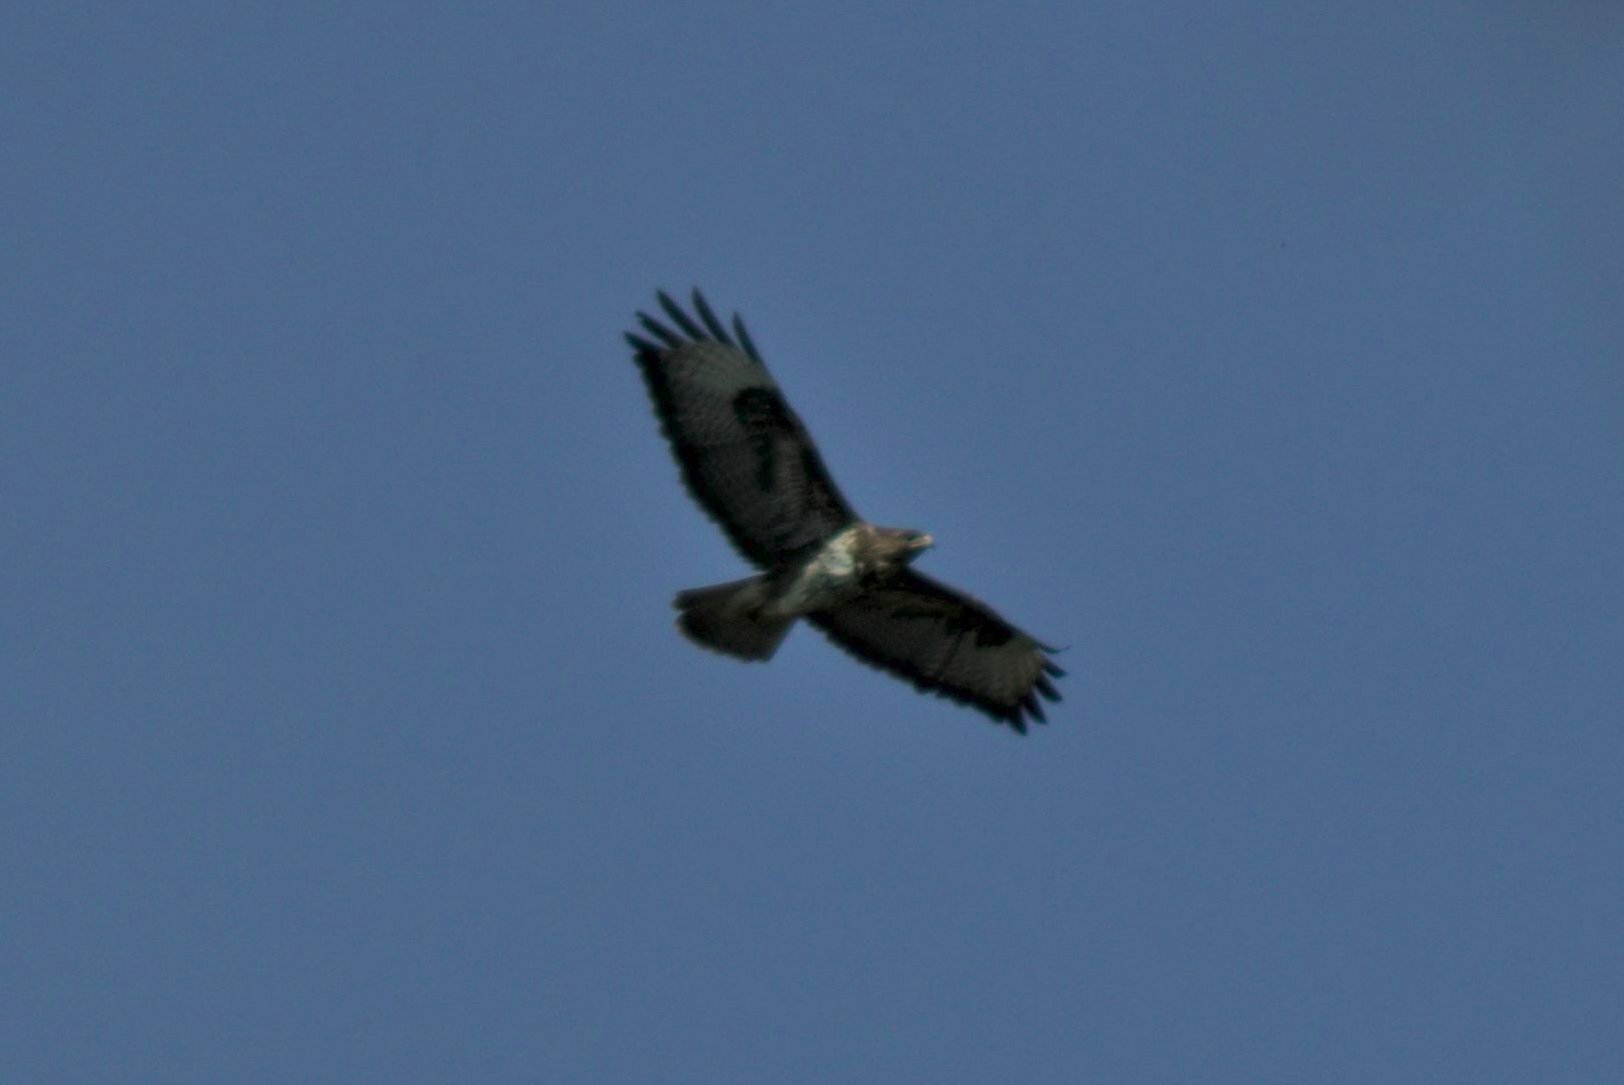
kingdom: Animalia
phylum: Chordata
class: Aves
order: Accipitriformes
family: Accipitridae
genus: Buteo
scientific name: Buteo buteo
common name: Common buzzard
